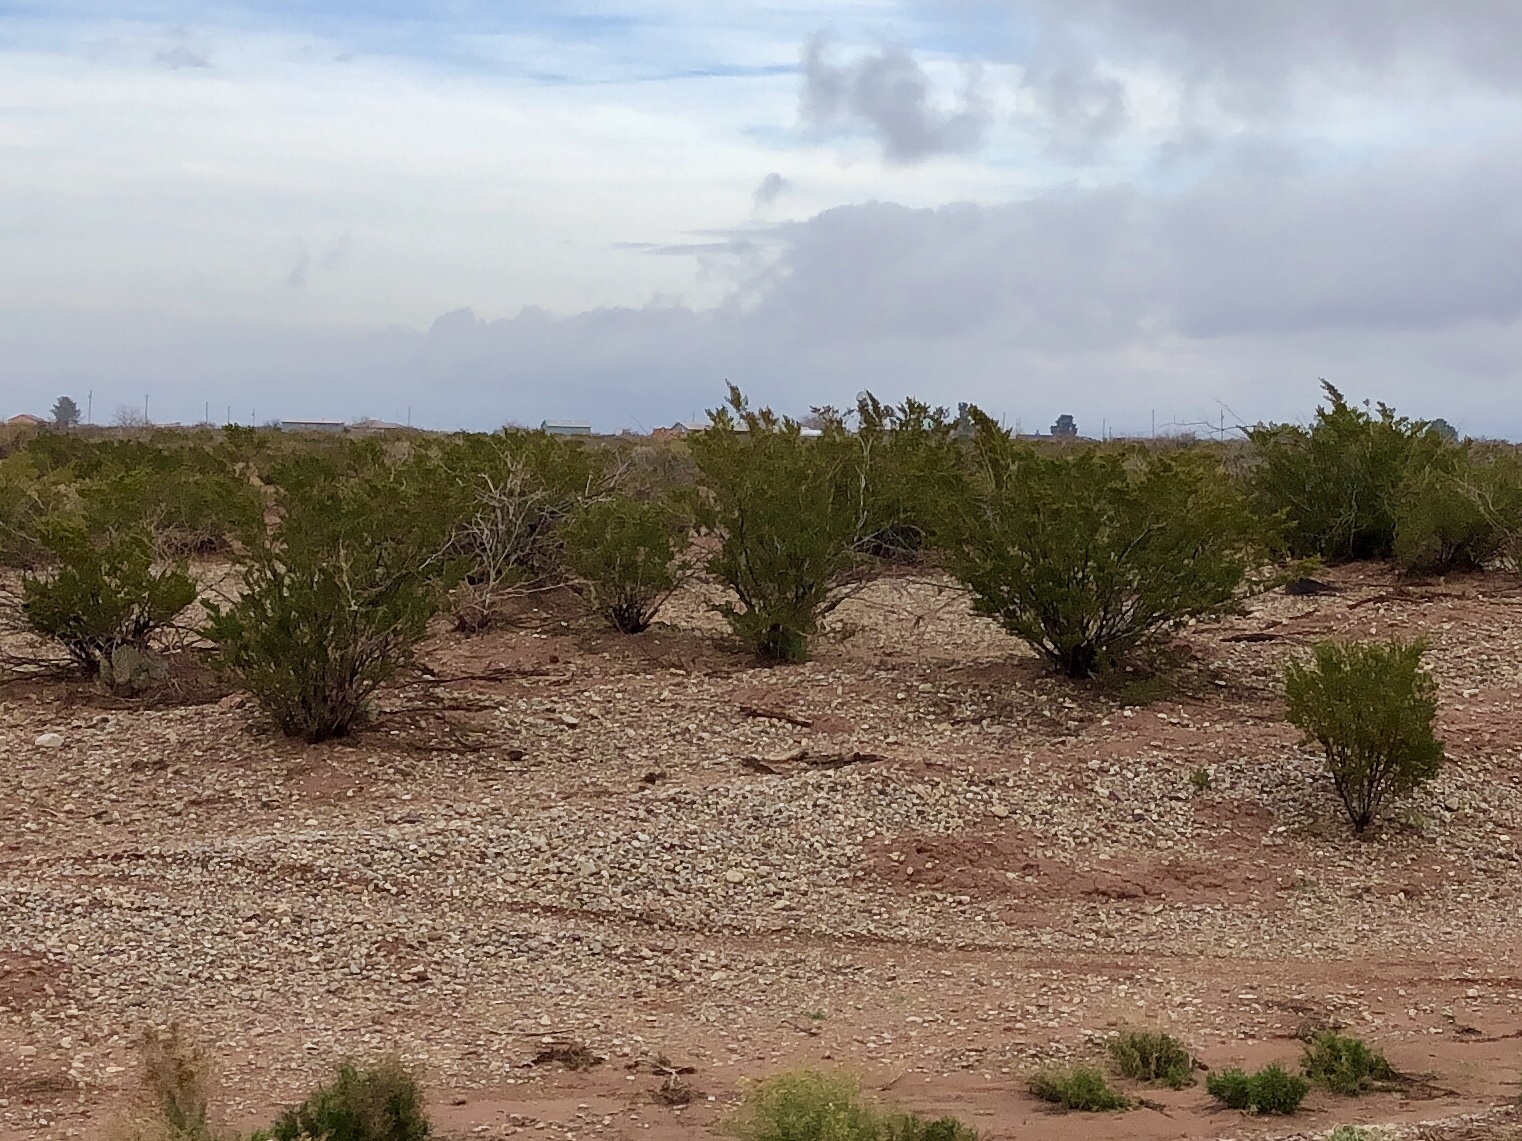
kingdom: Plantae
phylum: Tracheophyta
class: Magnoliopsida
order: Zygophyllales
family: Zygophyllaceae
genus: Larrea
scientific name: Larrea tridentata
